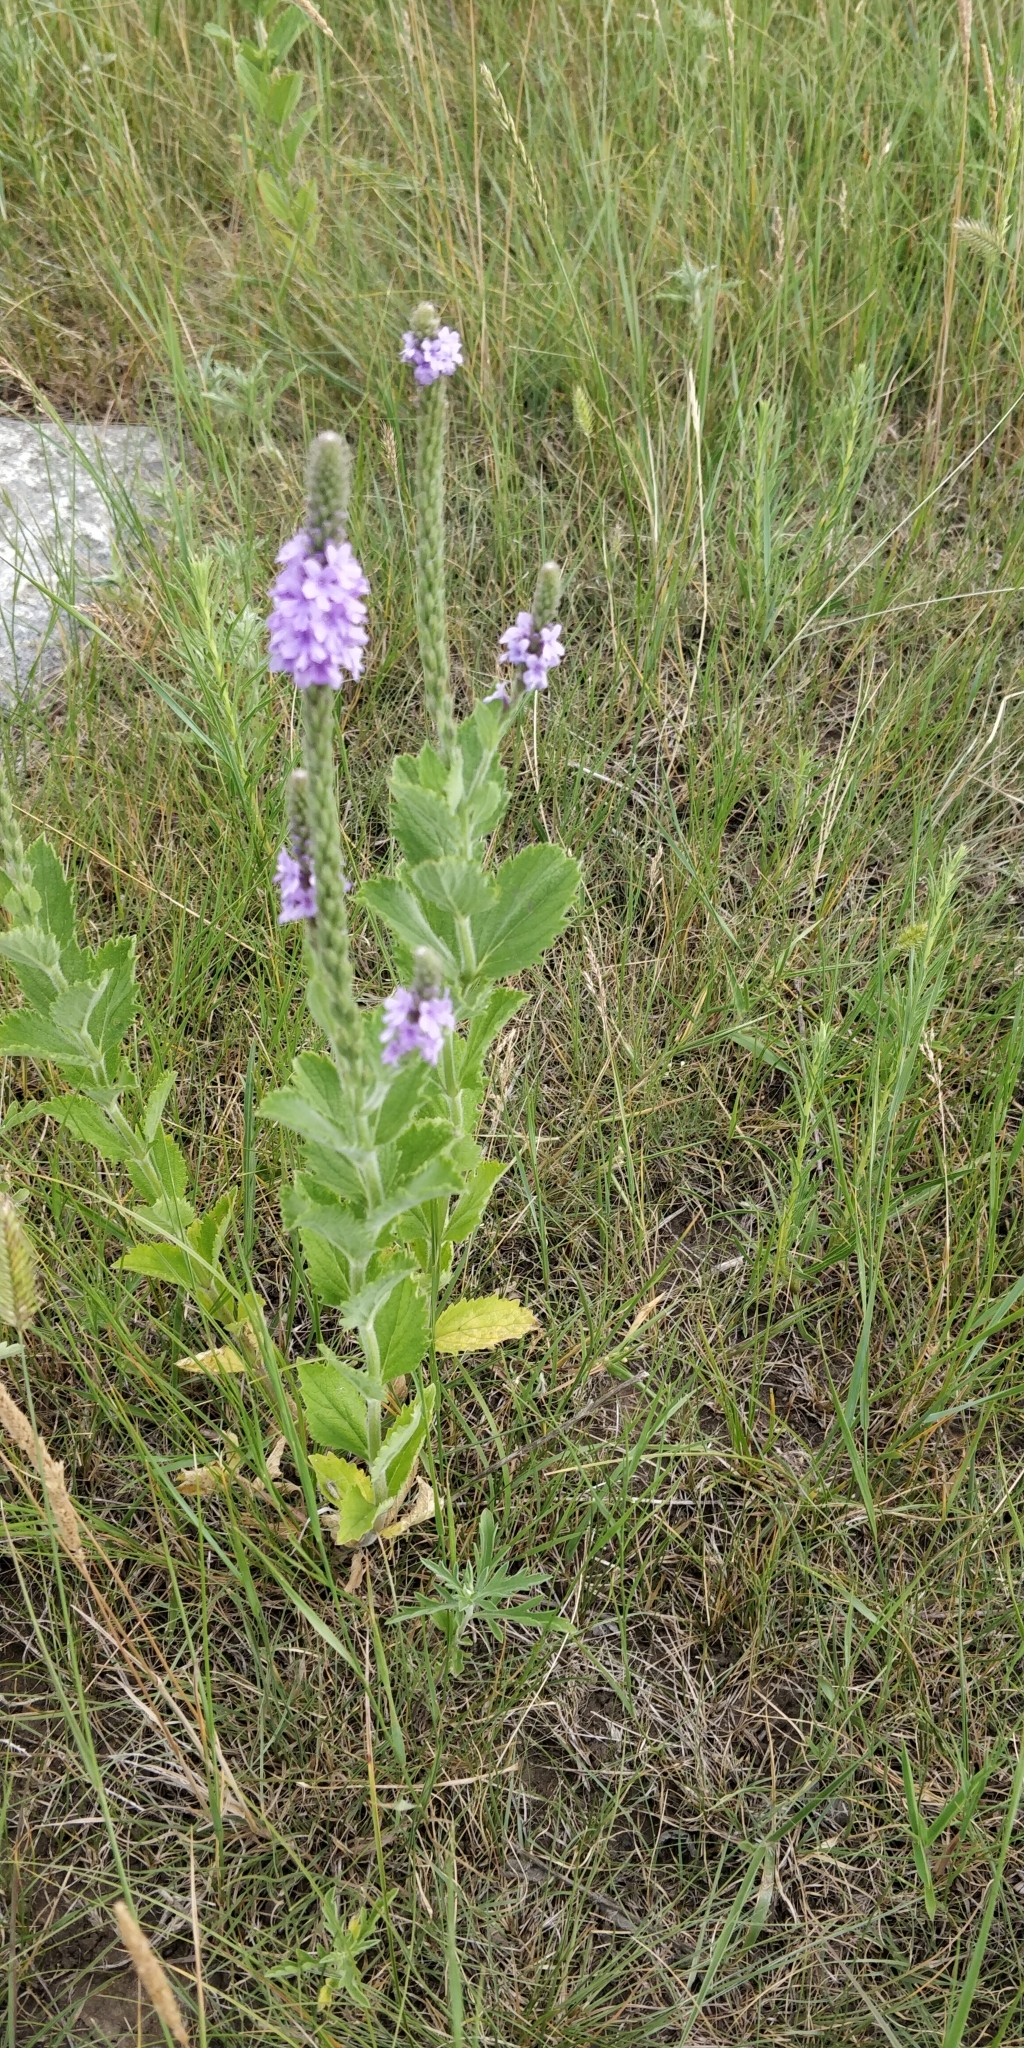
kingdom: Plantae
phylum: Tracheophyta
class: Magnoliopsida
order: Lamiales
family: Verbenaceae
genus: Verbena
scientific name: Verbena stricta
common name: Hoary vervain
